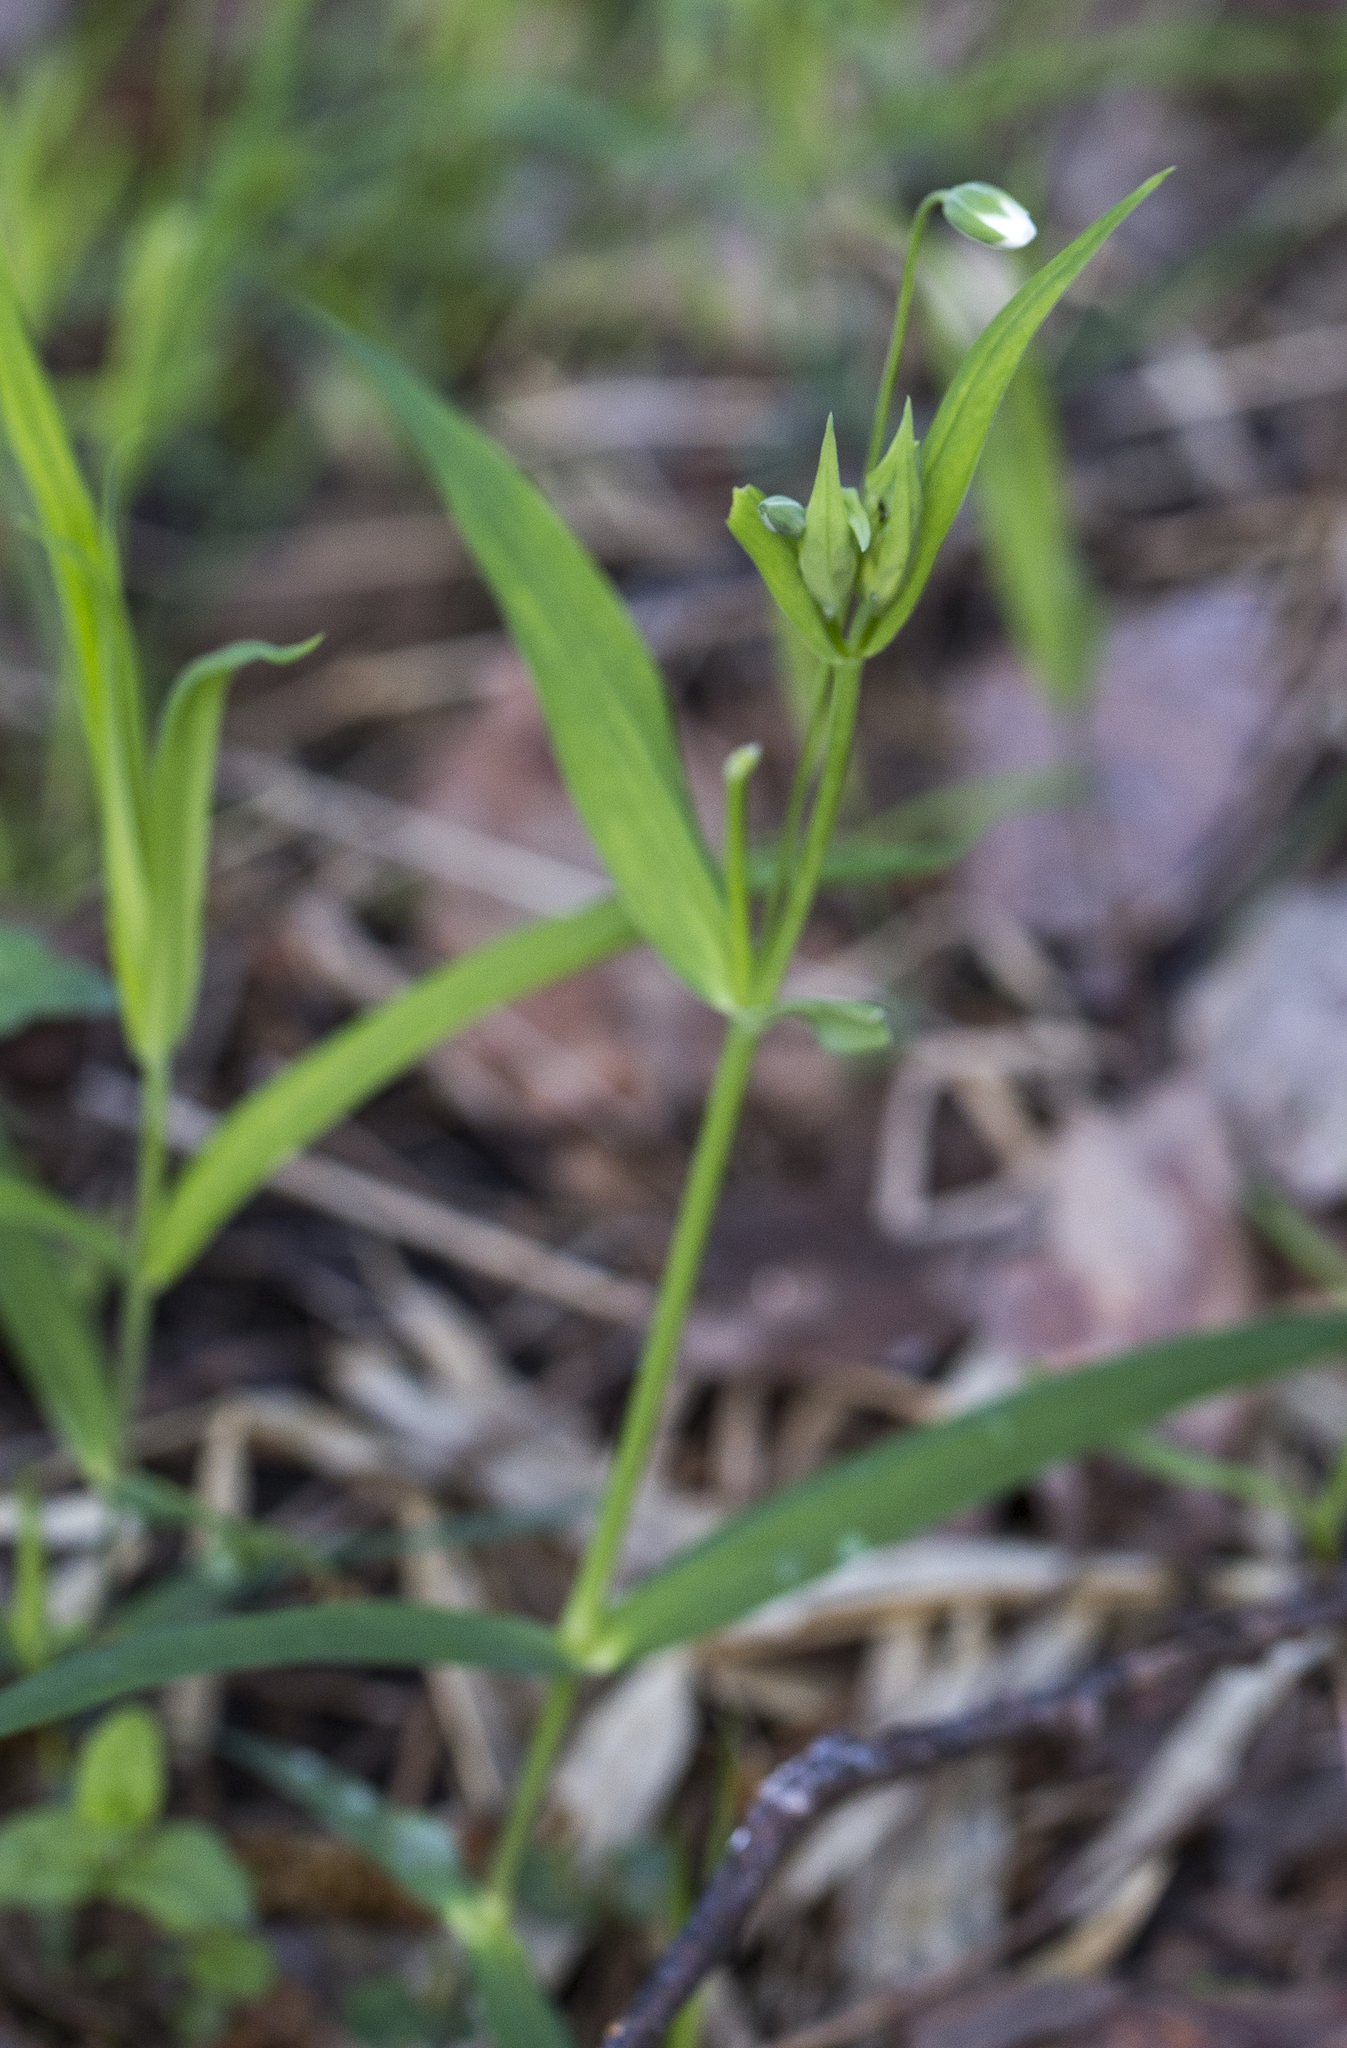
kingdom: Plantae
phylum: Tracheophyta
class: Magnoliopsida
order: Caryophyllales
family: Caryophyllaceae
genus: Rabelera
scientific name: Rabelera holostea
